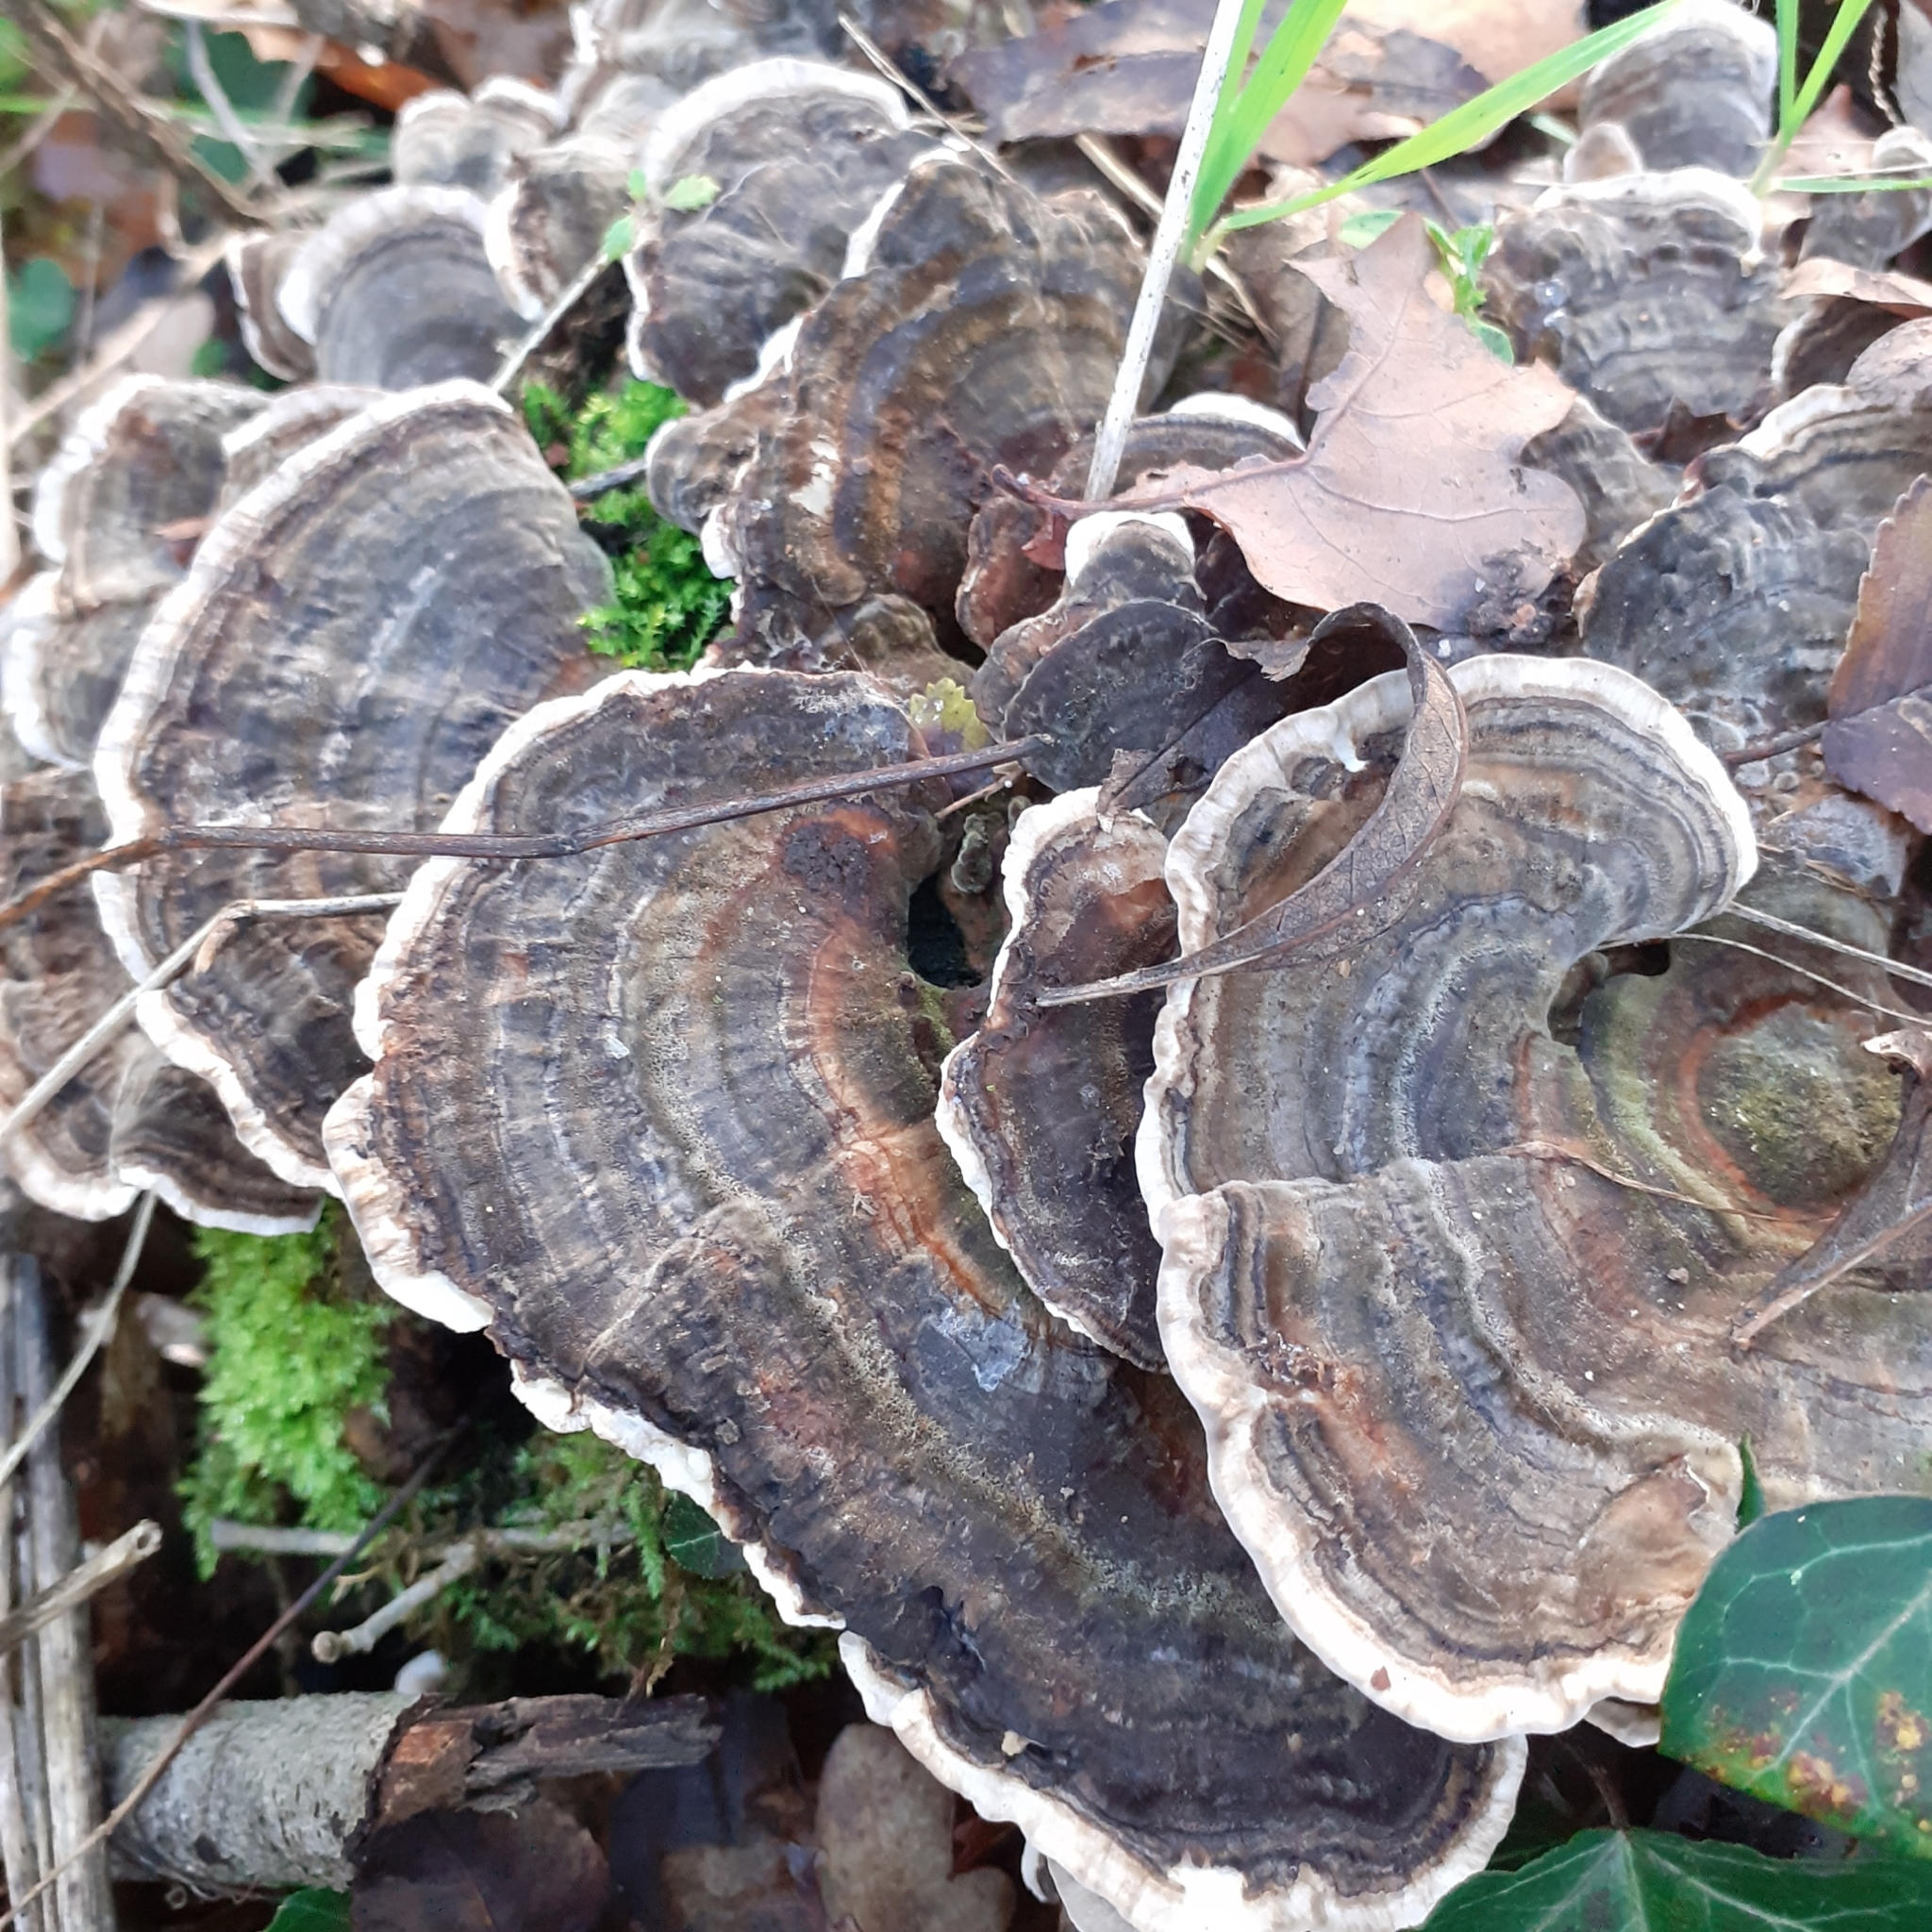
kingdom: Fungi
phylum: Basidiomycota
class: Agaricomycetes
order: Polyporales
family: Polyporaceae
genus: Trametes
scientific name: Trametes versicolor
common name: Turkeytail
